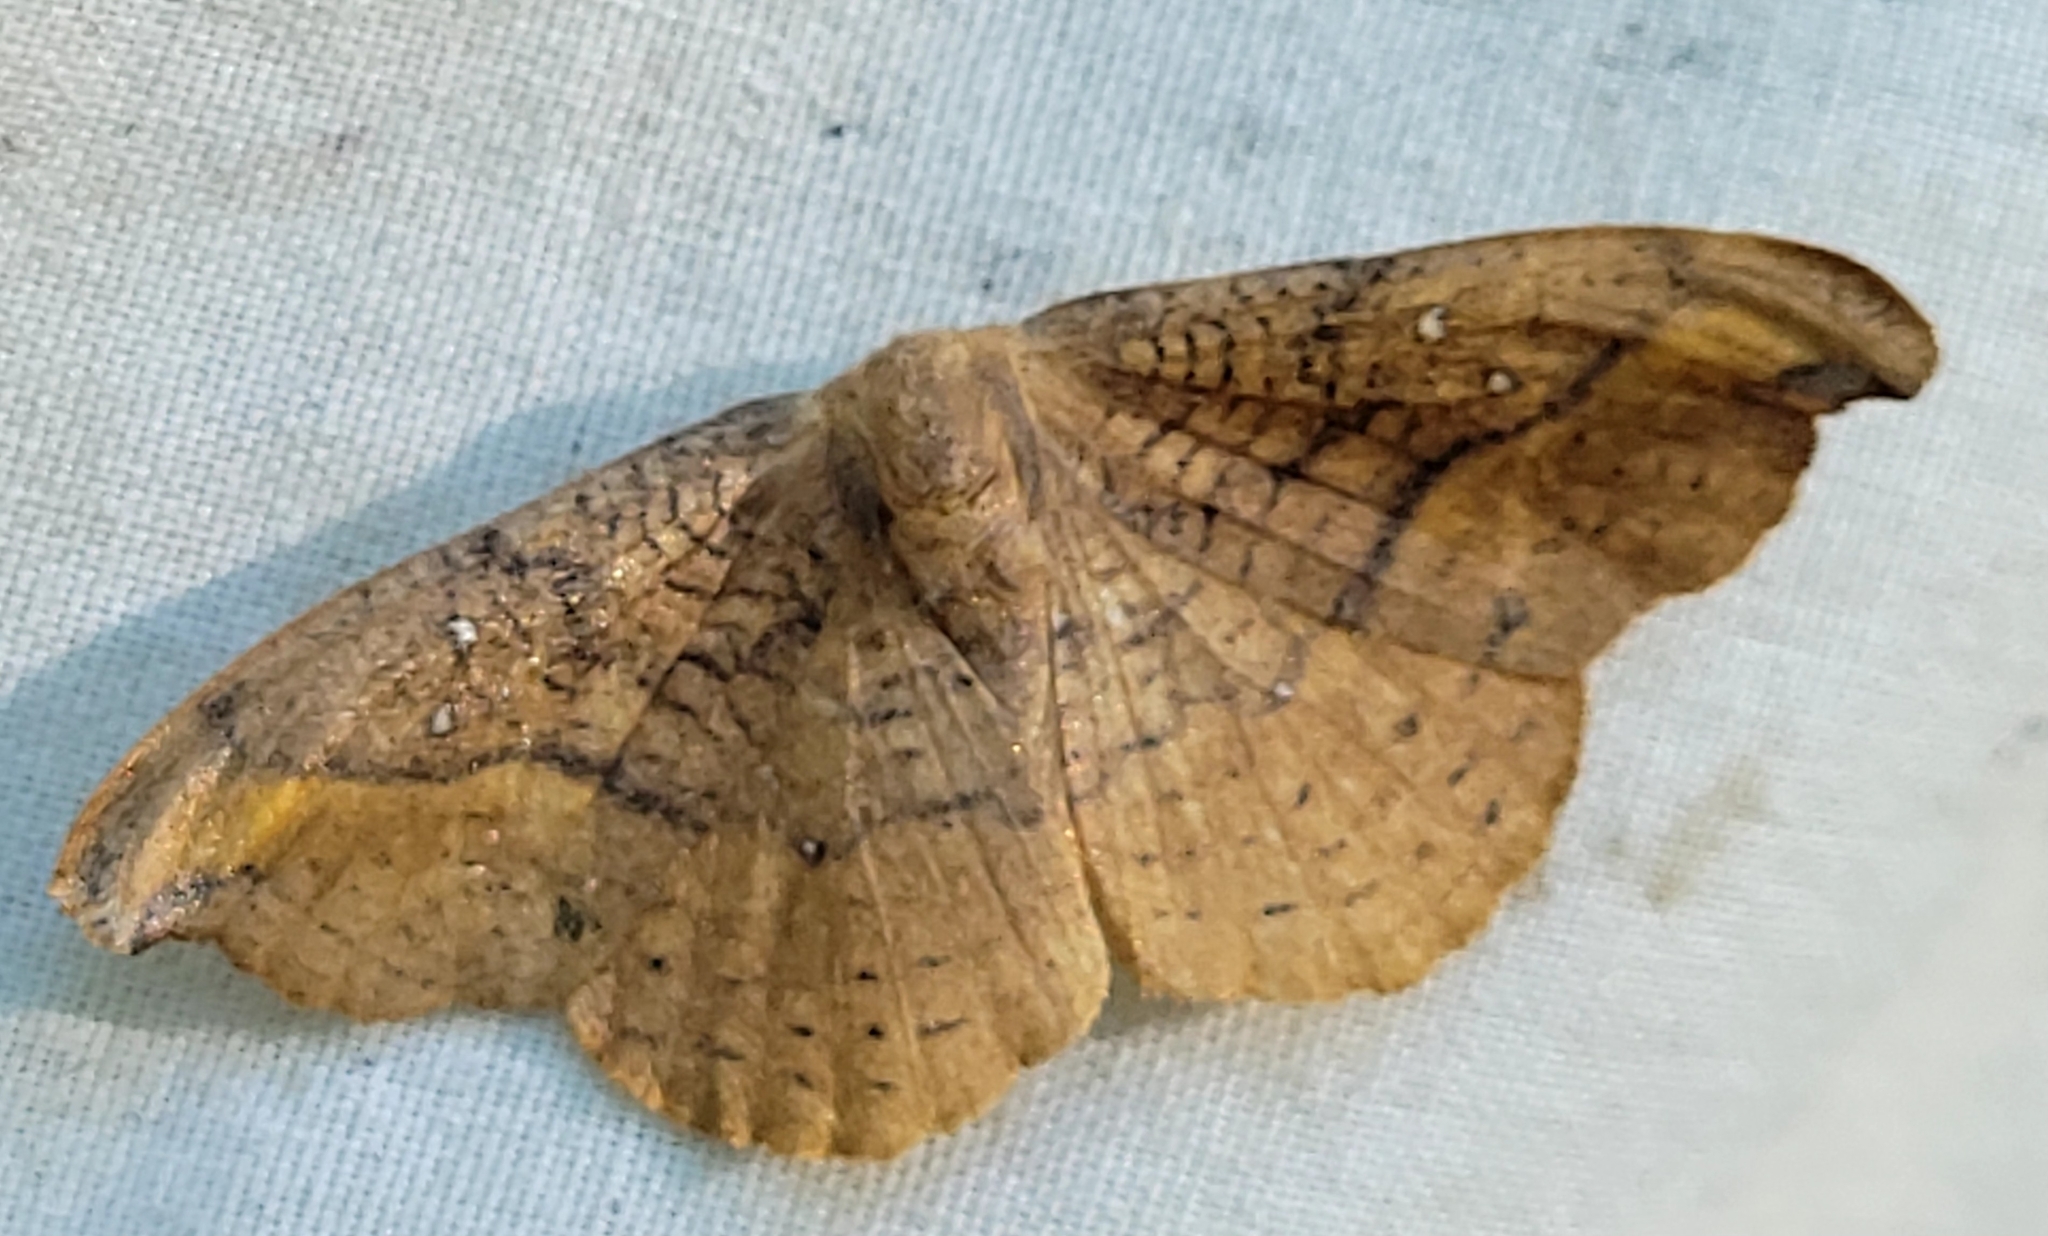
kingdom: Animalia
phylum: Arthropoda
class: Insecta
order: Lepidoptera
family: Drepanidae
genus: Oreta
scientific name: Oreta rosea
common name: Rose hooktip
